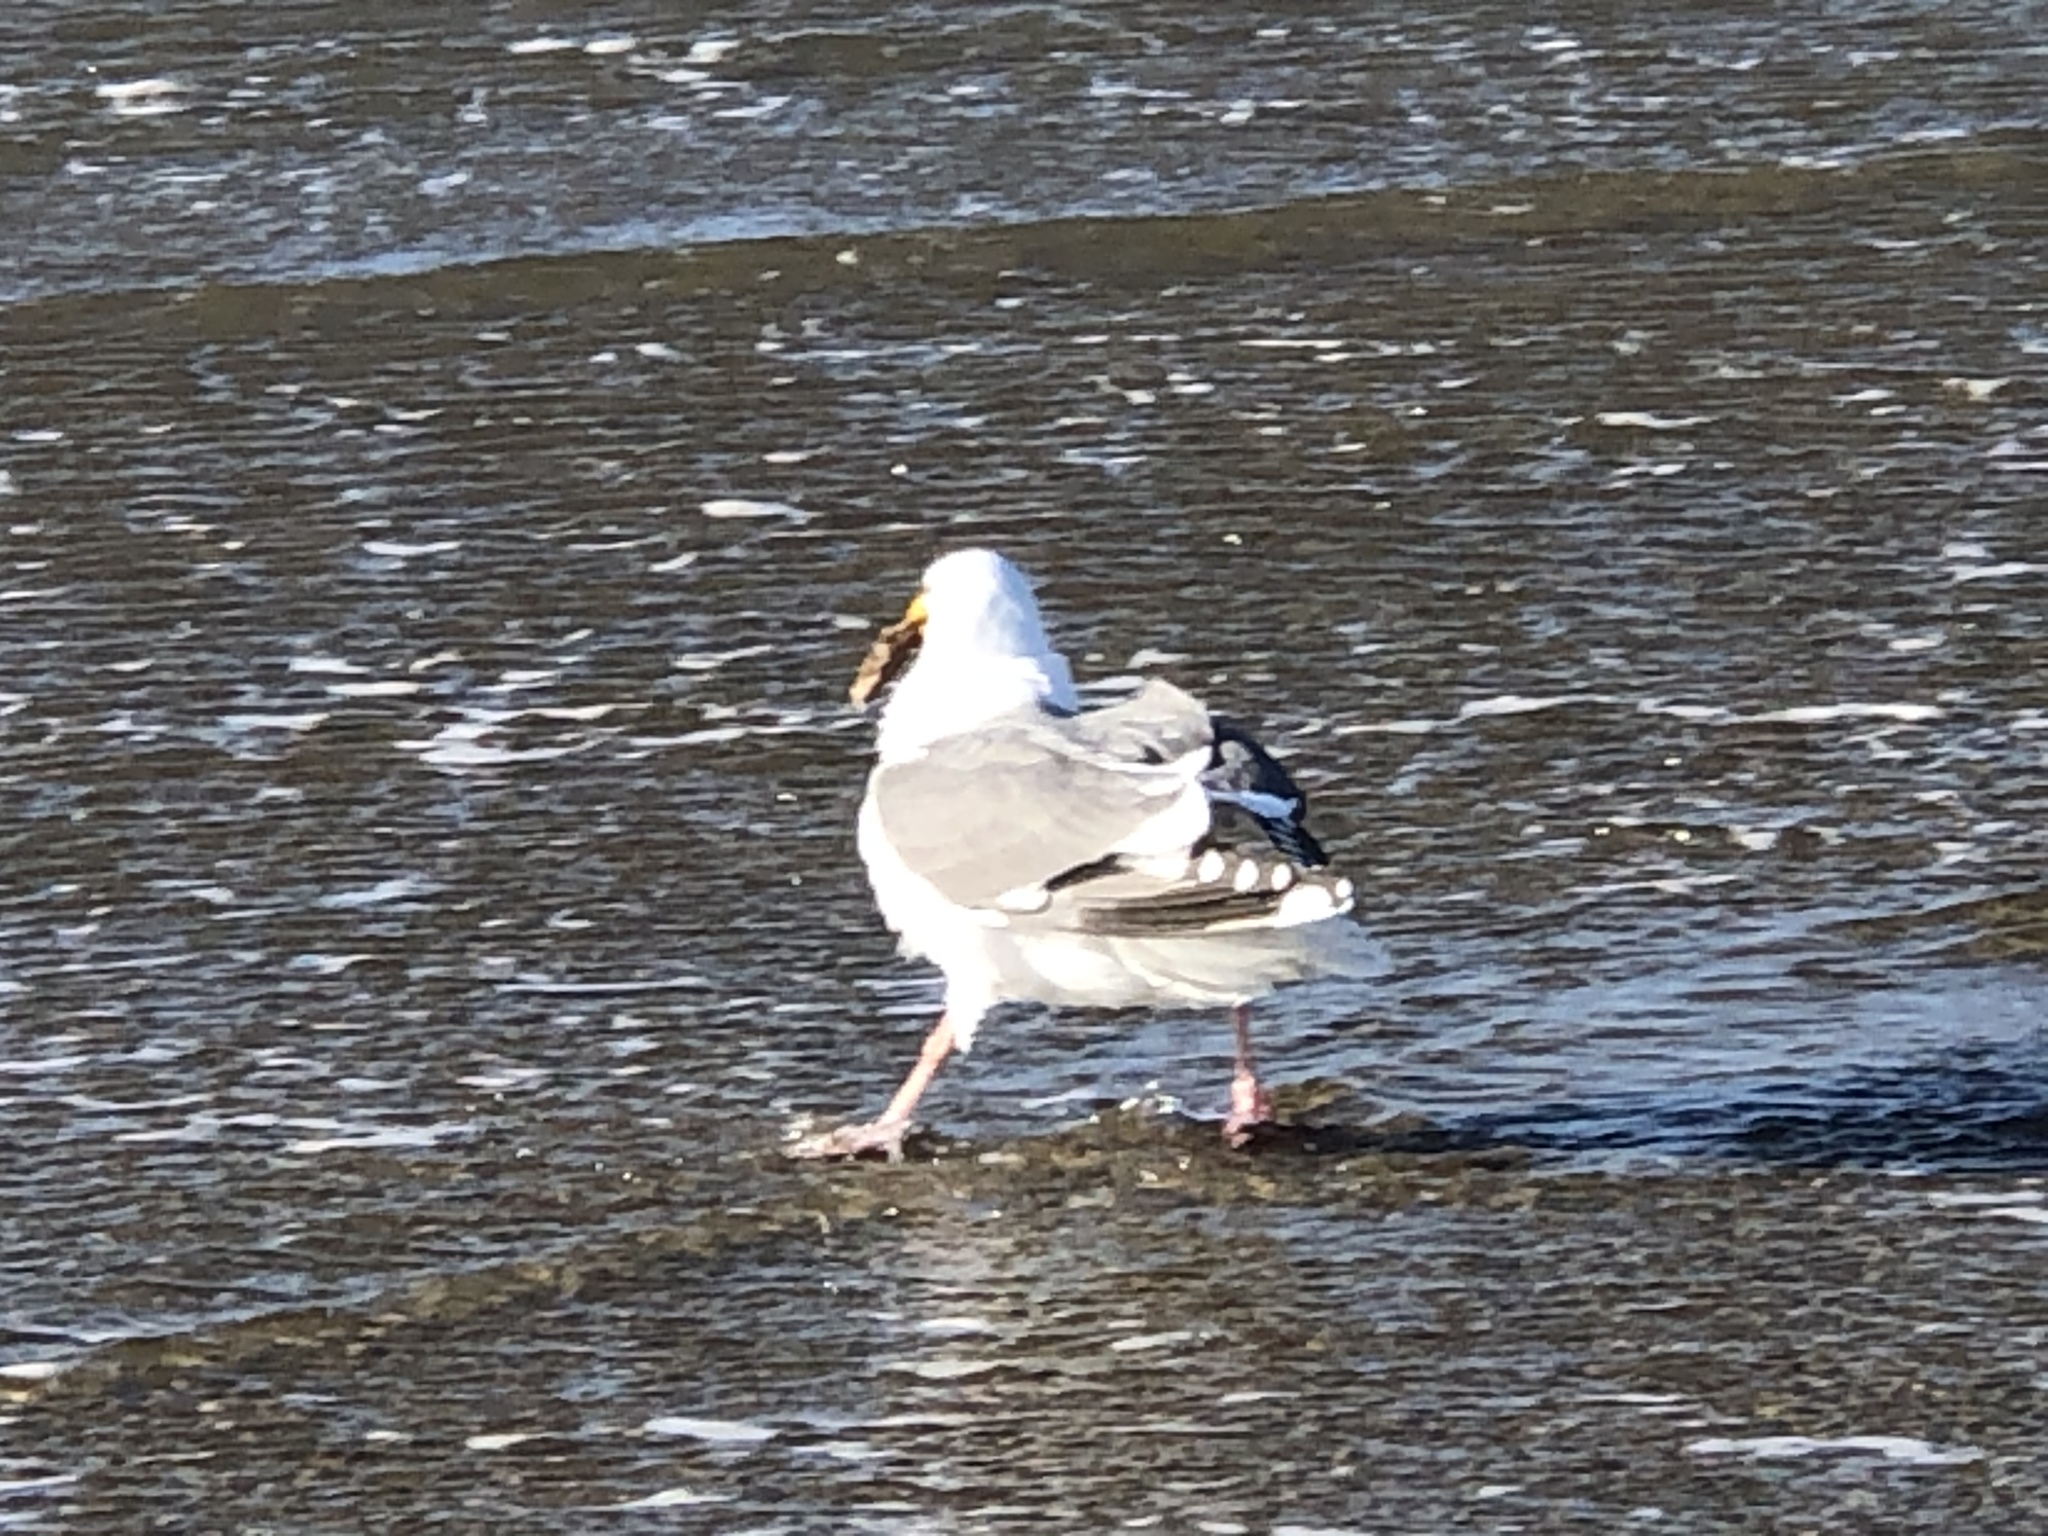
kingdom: Animalia
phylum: Chordata
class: Aves
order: Charadriiformes
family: Laridae
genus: Larus
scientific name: Larus occidentalis
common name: Western gull
